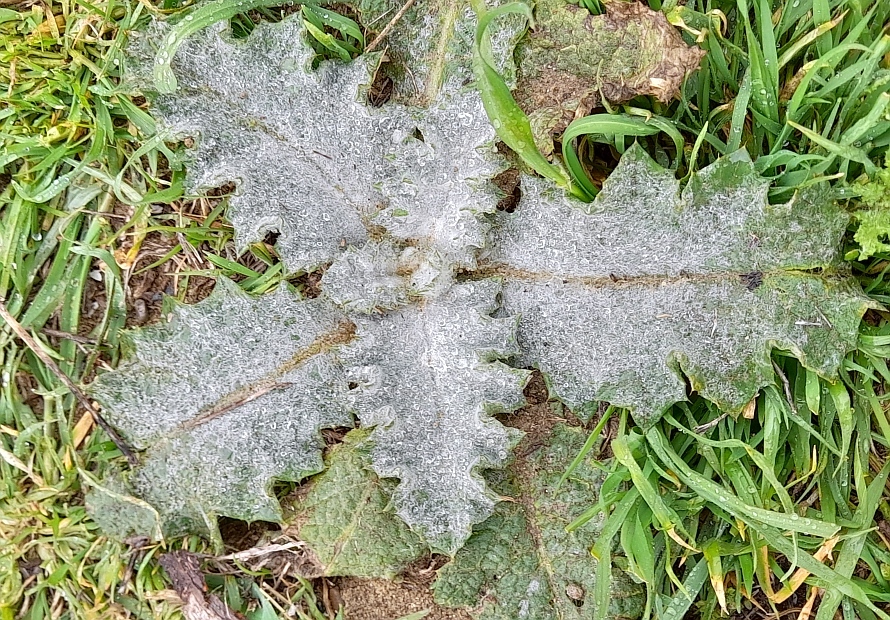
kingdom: Plantae
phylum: Tracheophyta
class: Magnoliopsida
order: Asterales
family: Asteraceae
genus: Onopordum
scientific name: Onopordum acanthium
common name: Scotch thistle
